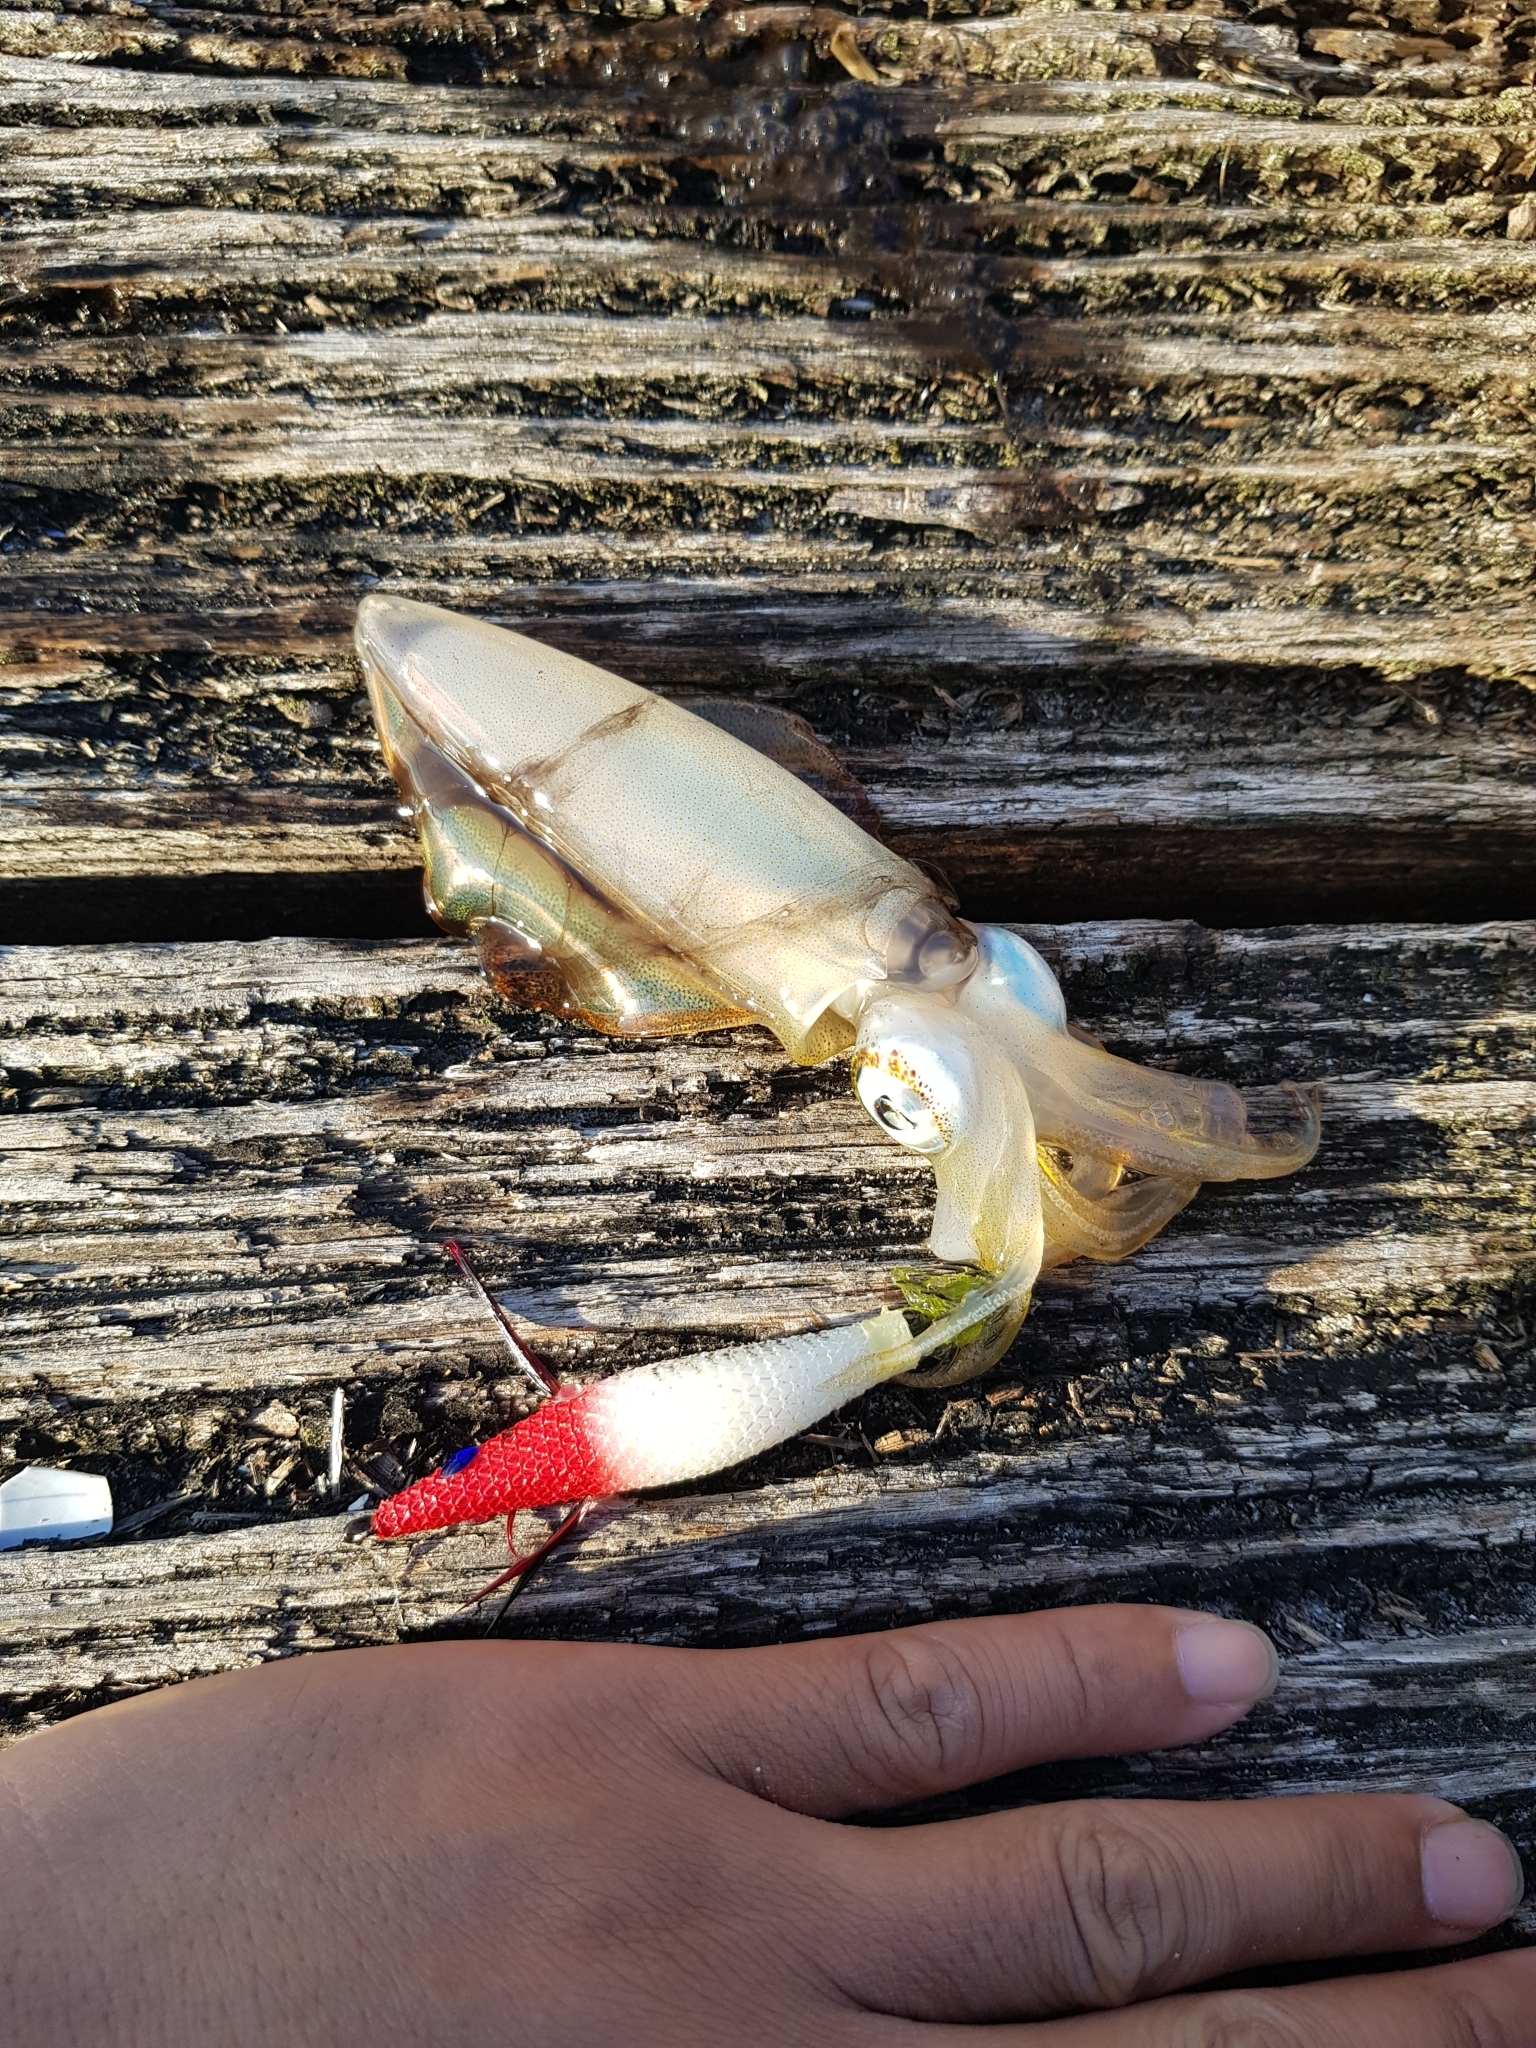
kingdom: Animalia
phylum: Mollusca
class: Cephalopoda
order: Myopsida
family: Loliginidae
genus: Sepioteuthis
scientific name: Sepioteuthis australis
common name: Southern reef squid
